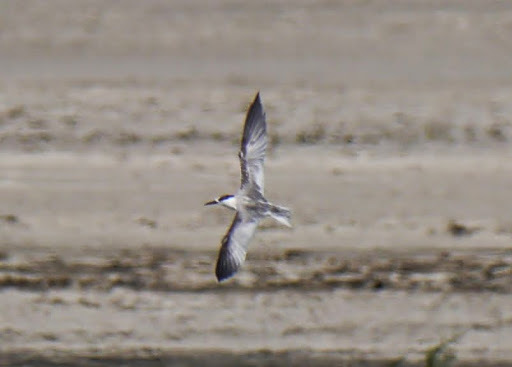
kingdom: Animalia
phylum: Chordata
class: Aves
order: Charadriiformes
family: Laridae
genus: Sterna
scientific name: Sterna hirundo
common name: Common tern
